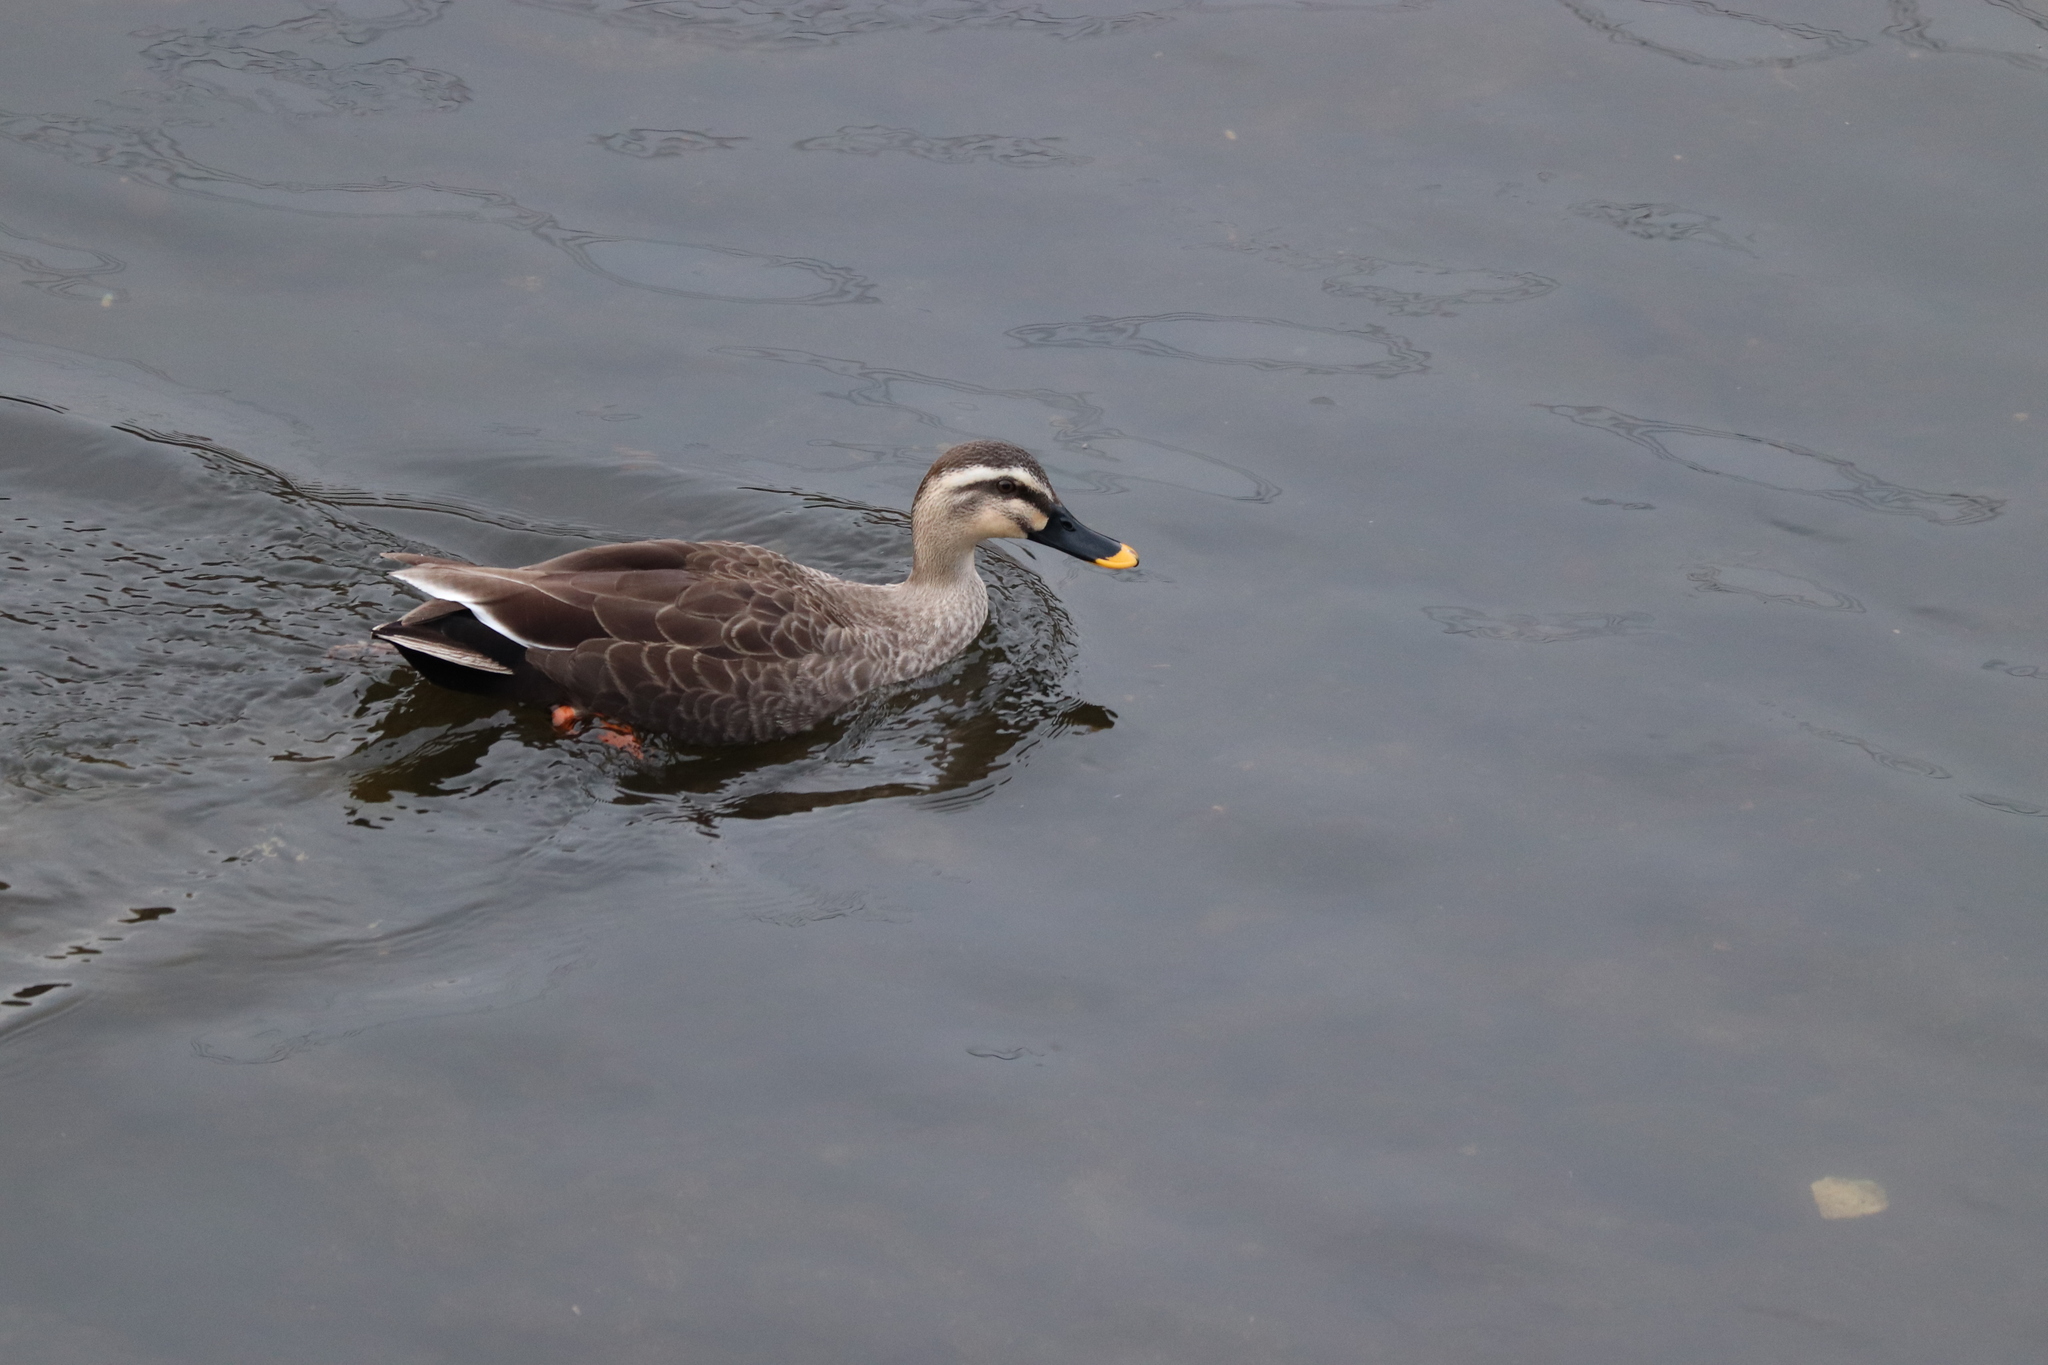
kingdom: Animalia
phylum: Chordata
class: Aves
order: Anseriformes
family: Anatidae
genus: Anas
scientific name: Anas zonorhyncha
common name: Eastern spot-billed duck
